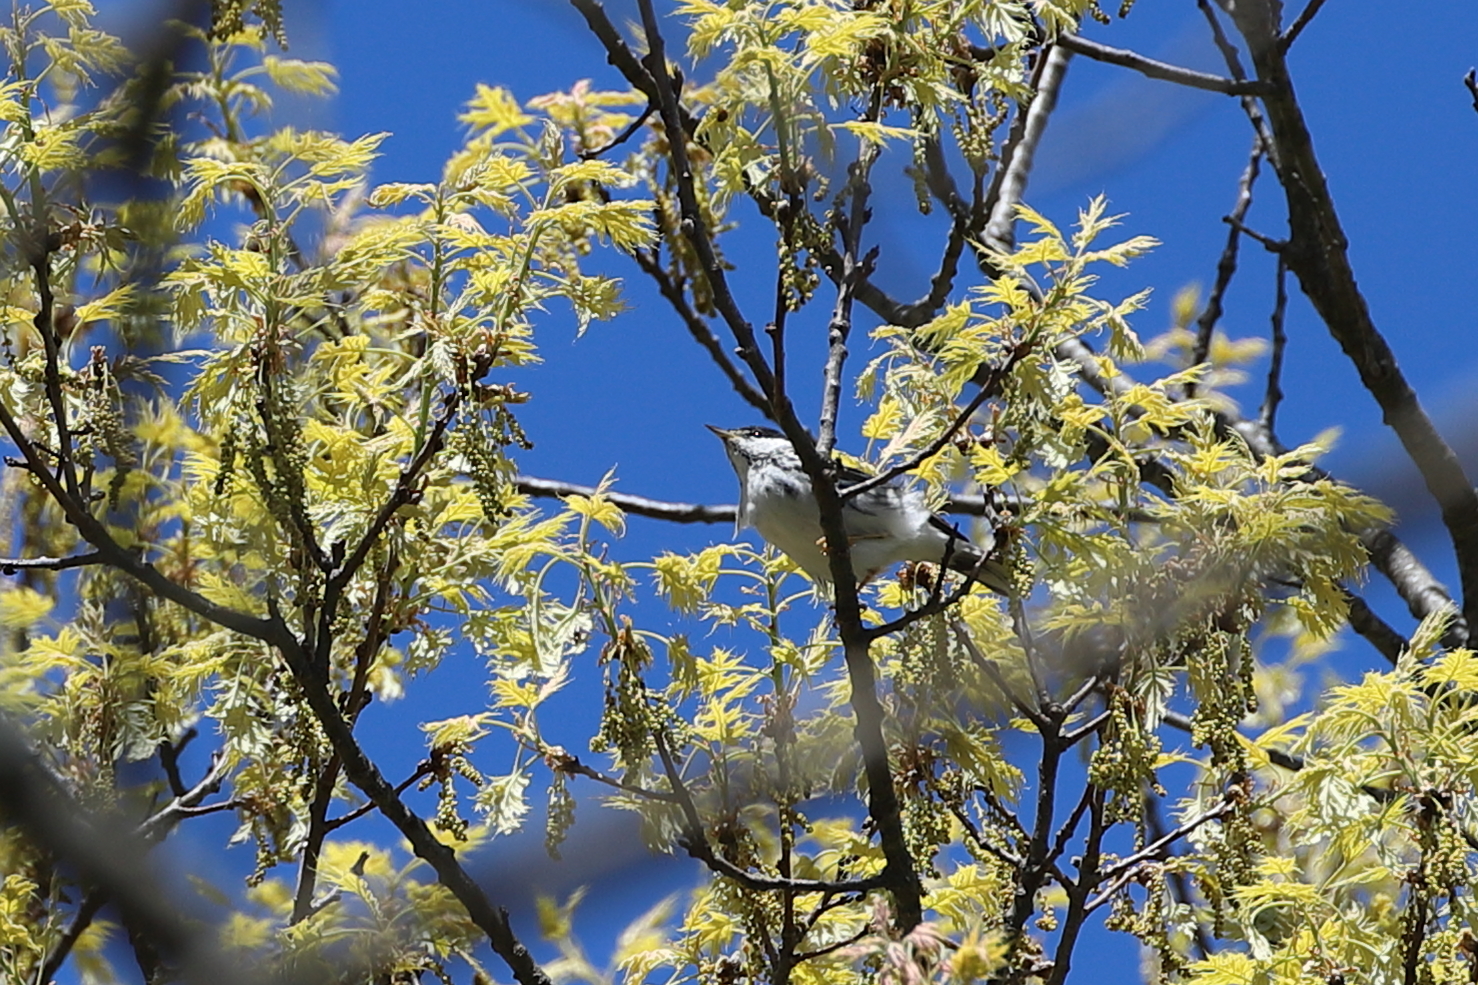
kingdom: Animalia
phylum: Chordata
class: Aves
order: Passeriformes
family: Parulidae
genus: Setophaga
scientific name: Setophaga striata
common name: Blackpoll warbler
